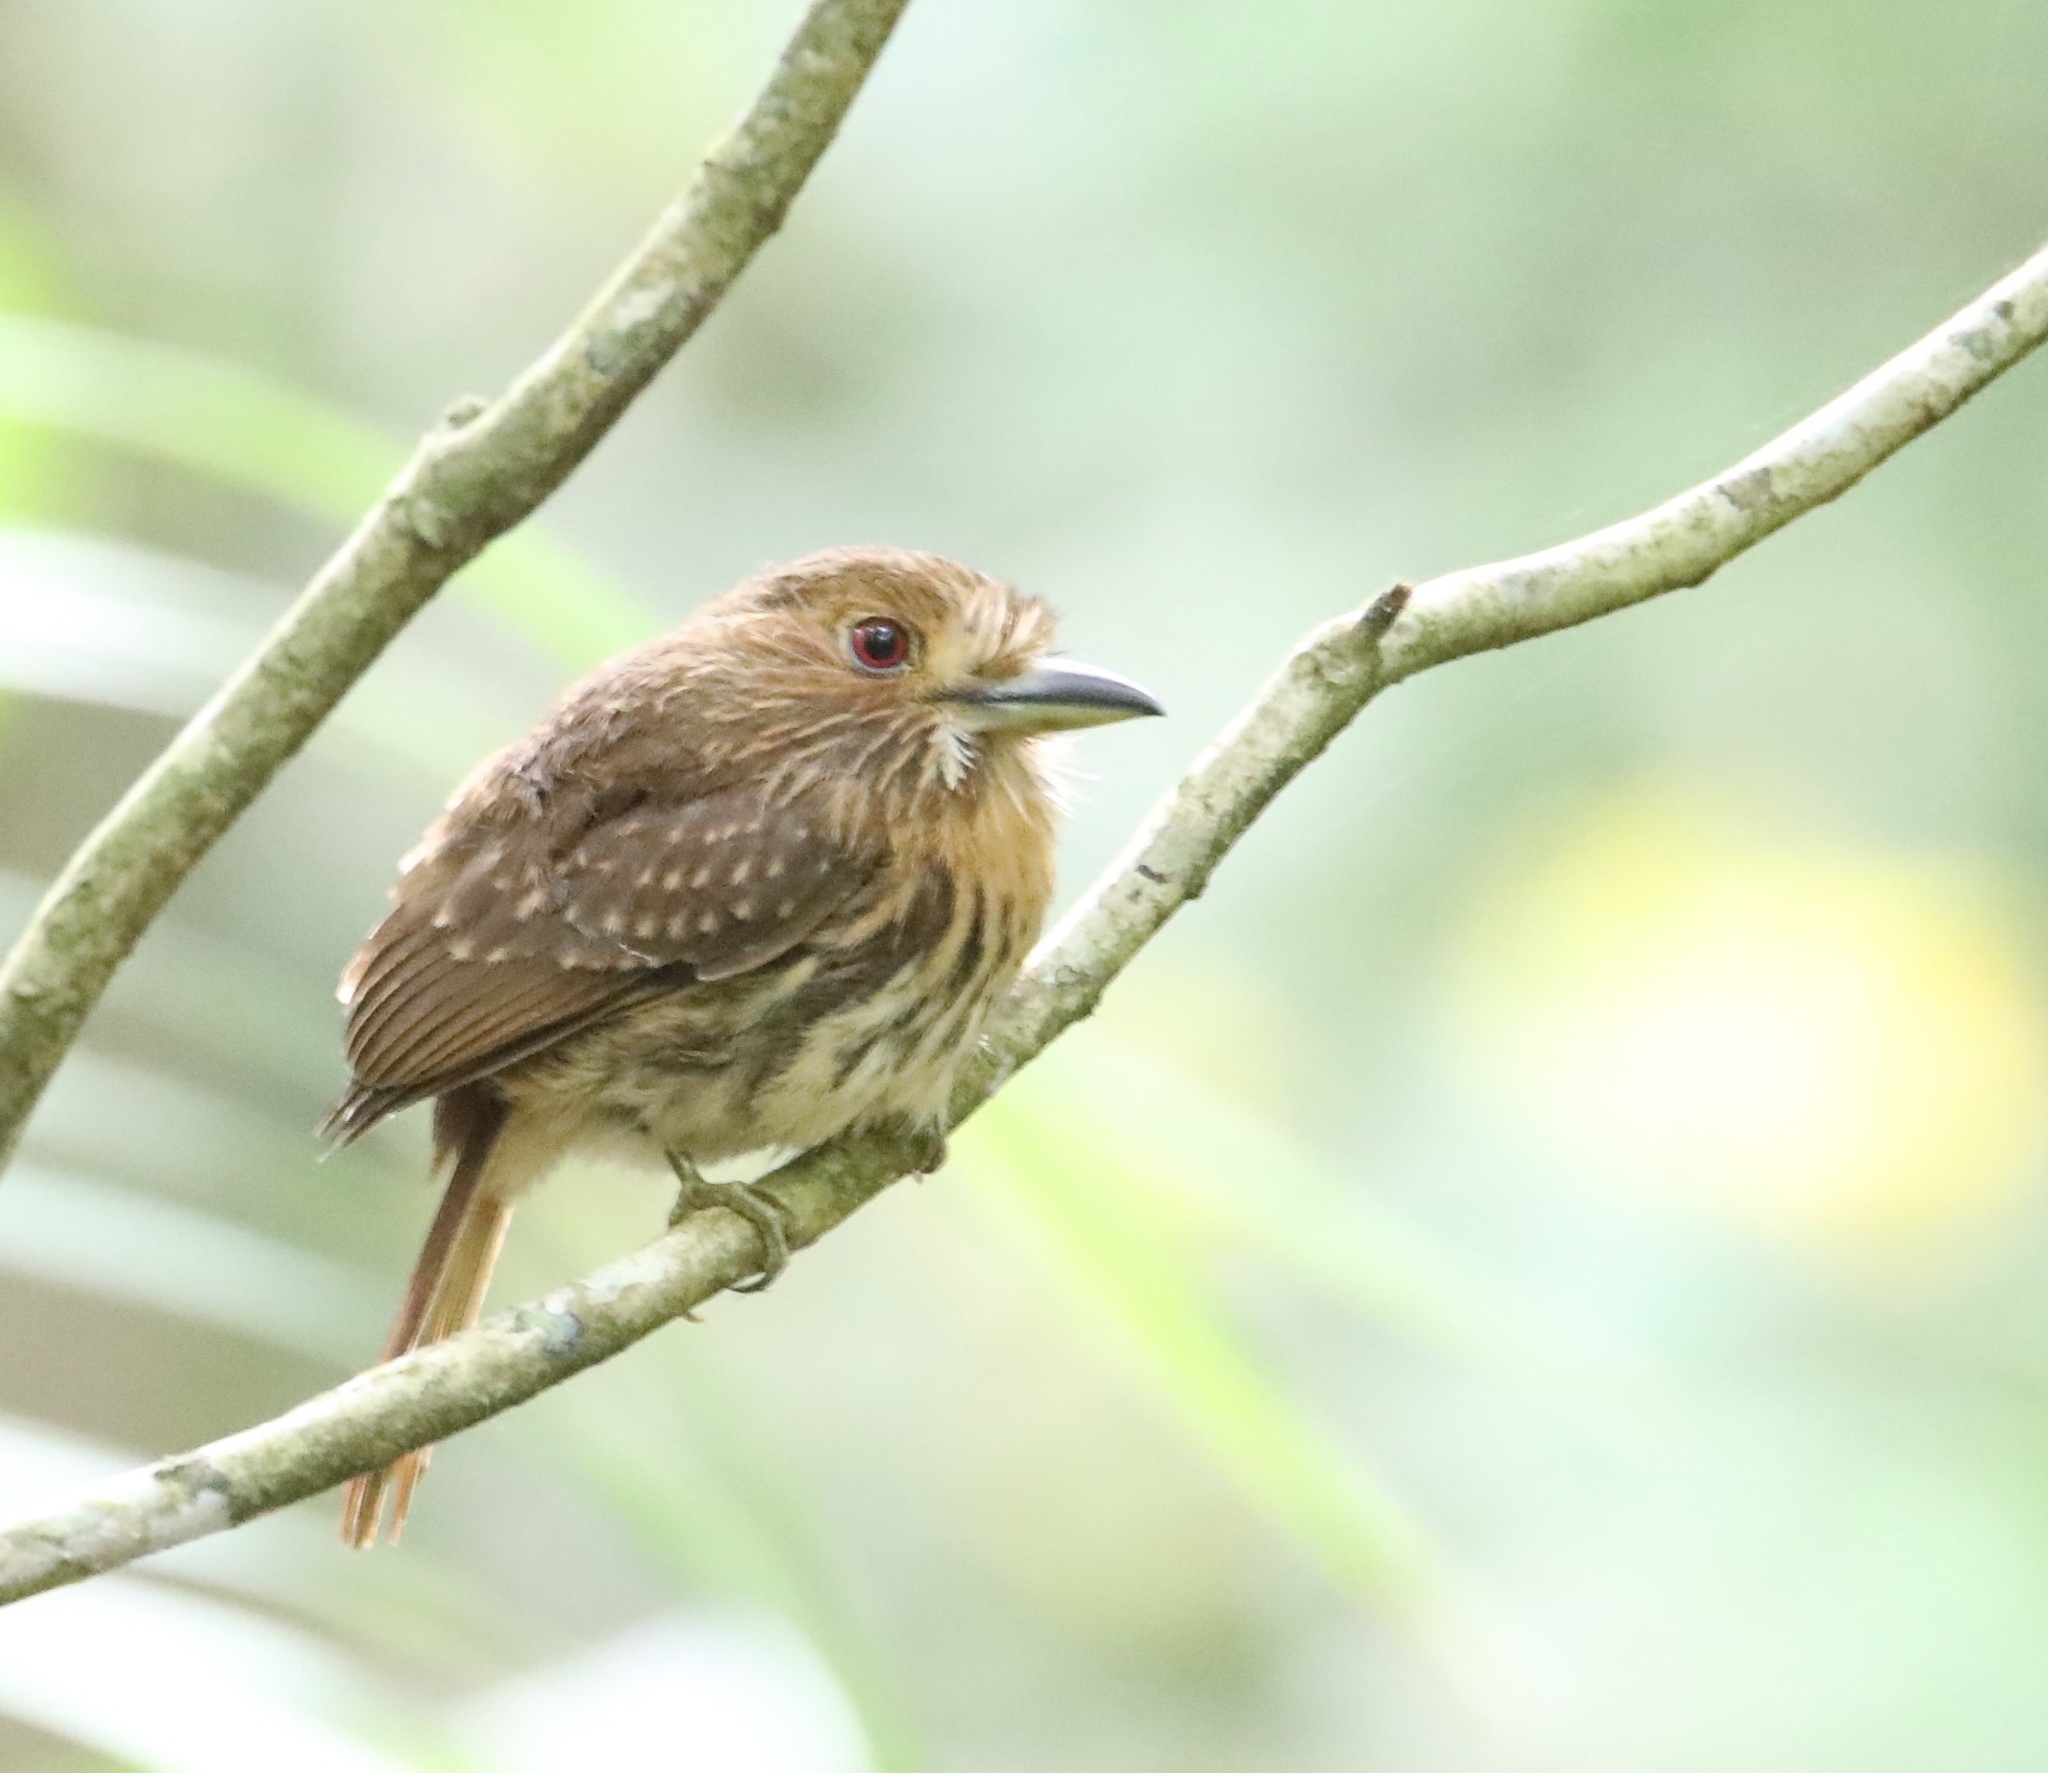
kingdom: Animalia
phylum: Chordata
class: Aves
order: Piciformes
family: Bucconidae
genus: Malacoptila
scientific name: Malacoptila panamensis
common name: White-whiskered puffbird
